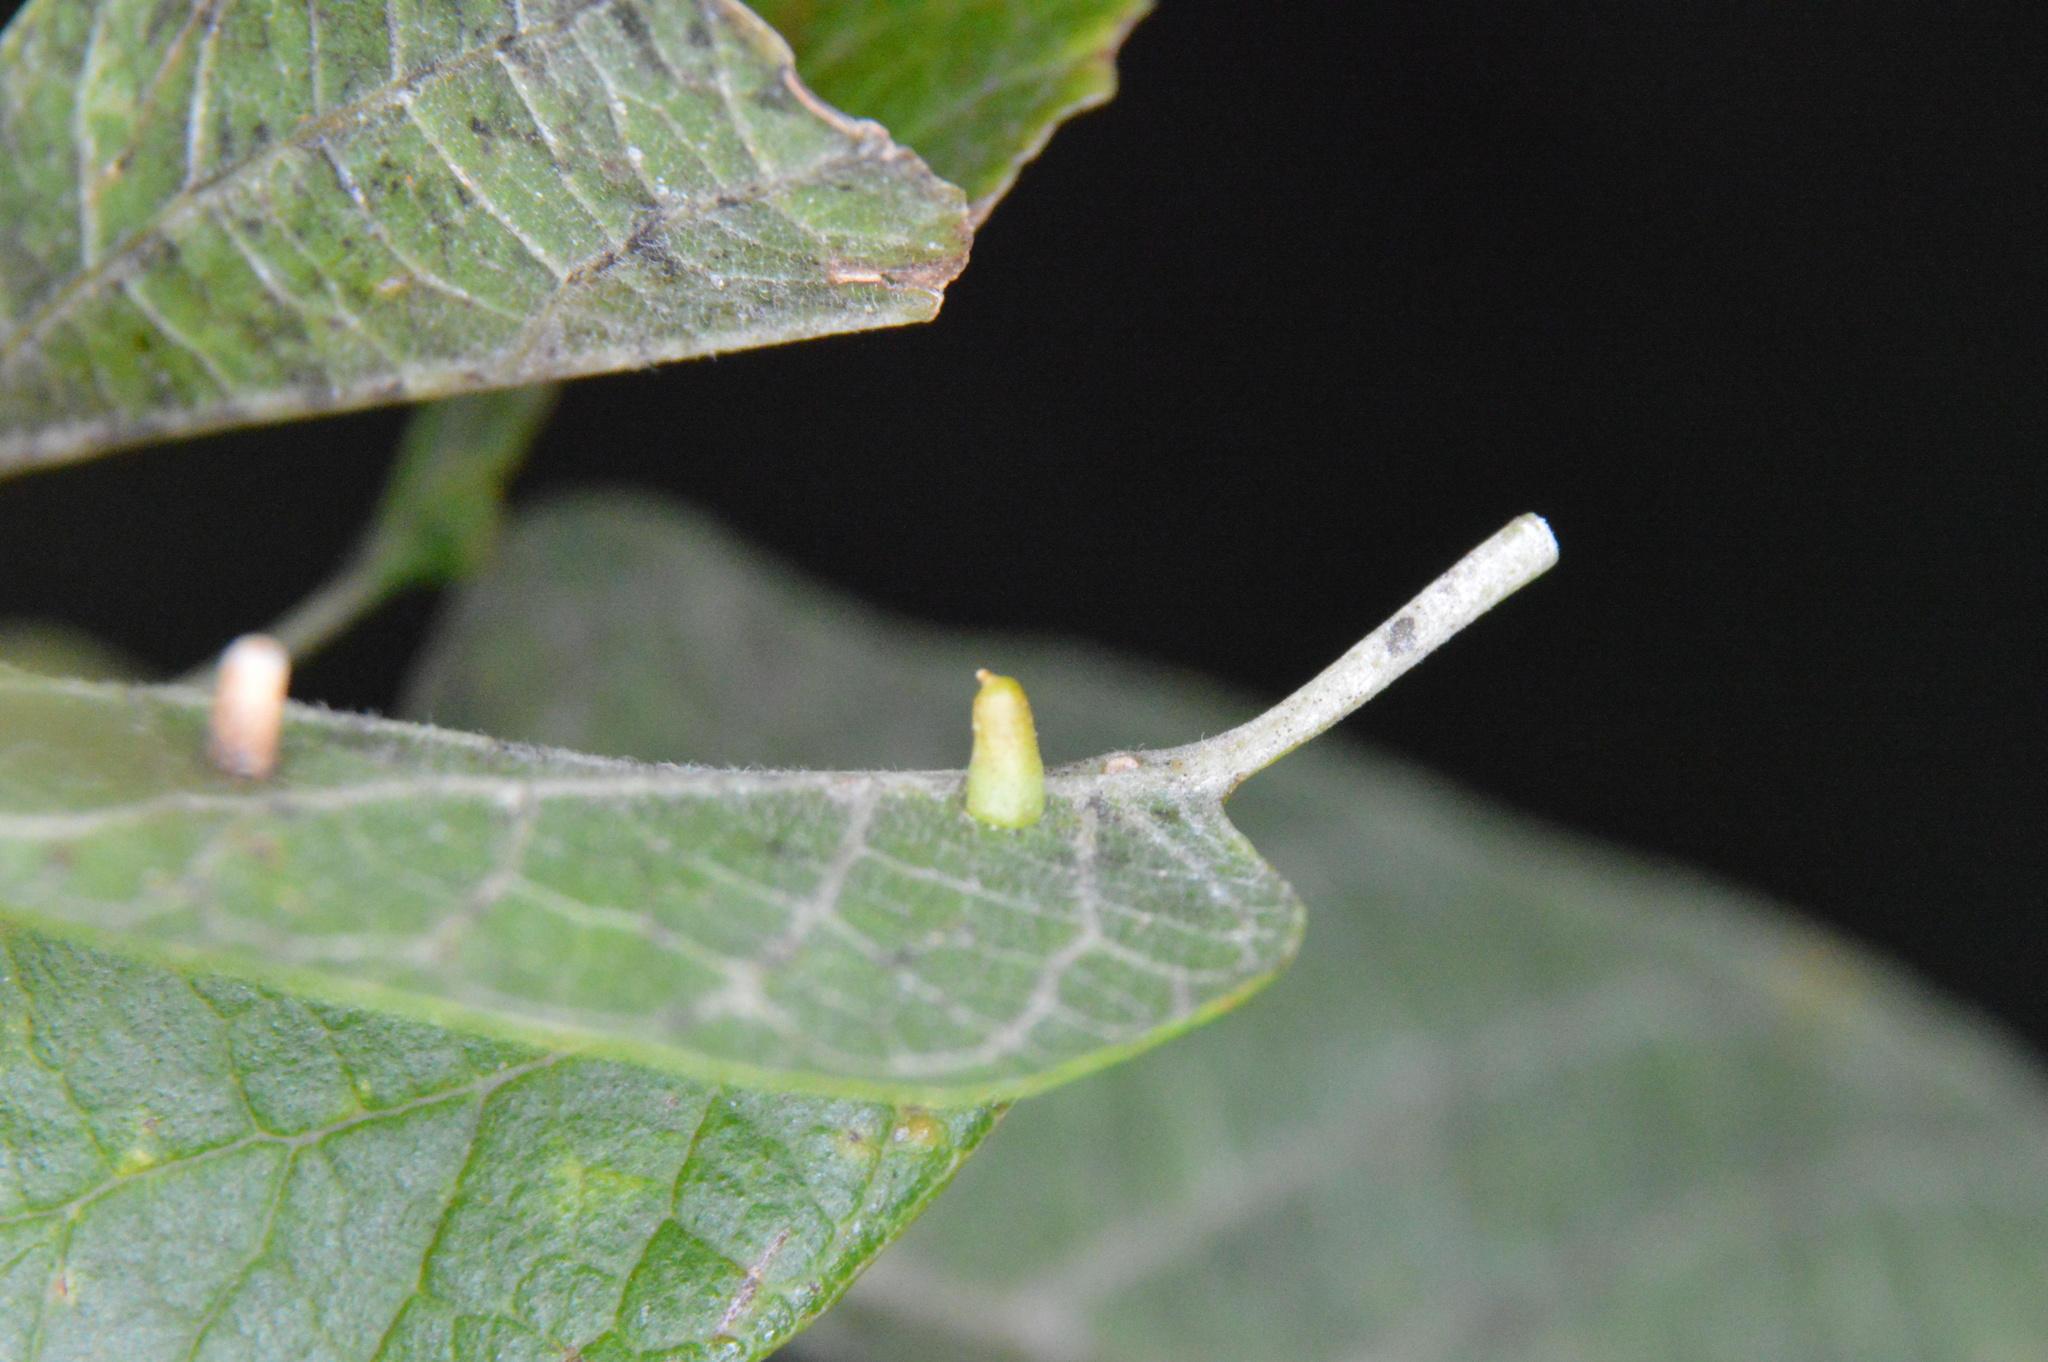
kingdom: Animalia
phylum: Arthropoda
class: Insecta
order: Diptera
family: Cecidomyiidae
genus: Celticecis
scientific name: Celticecis aciculata
